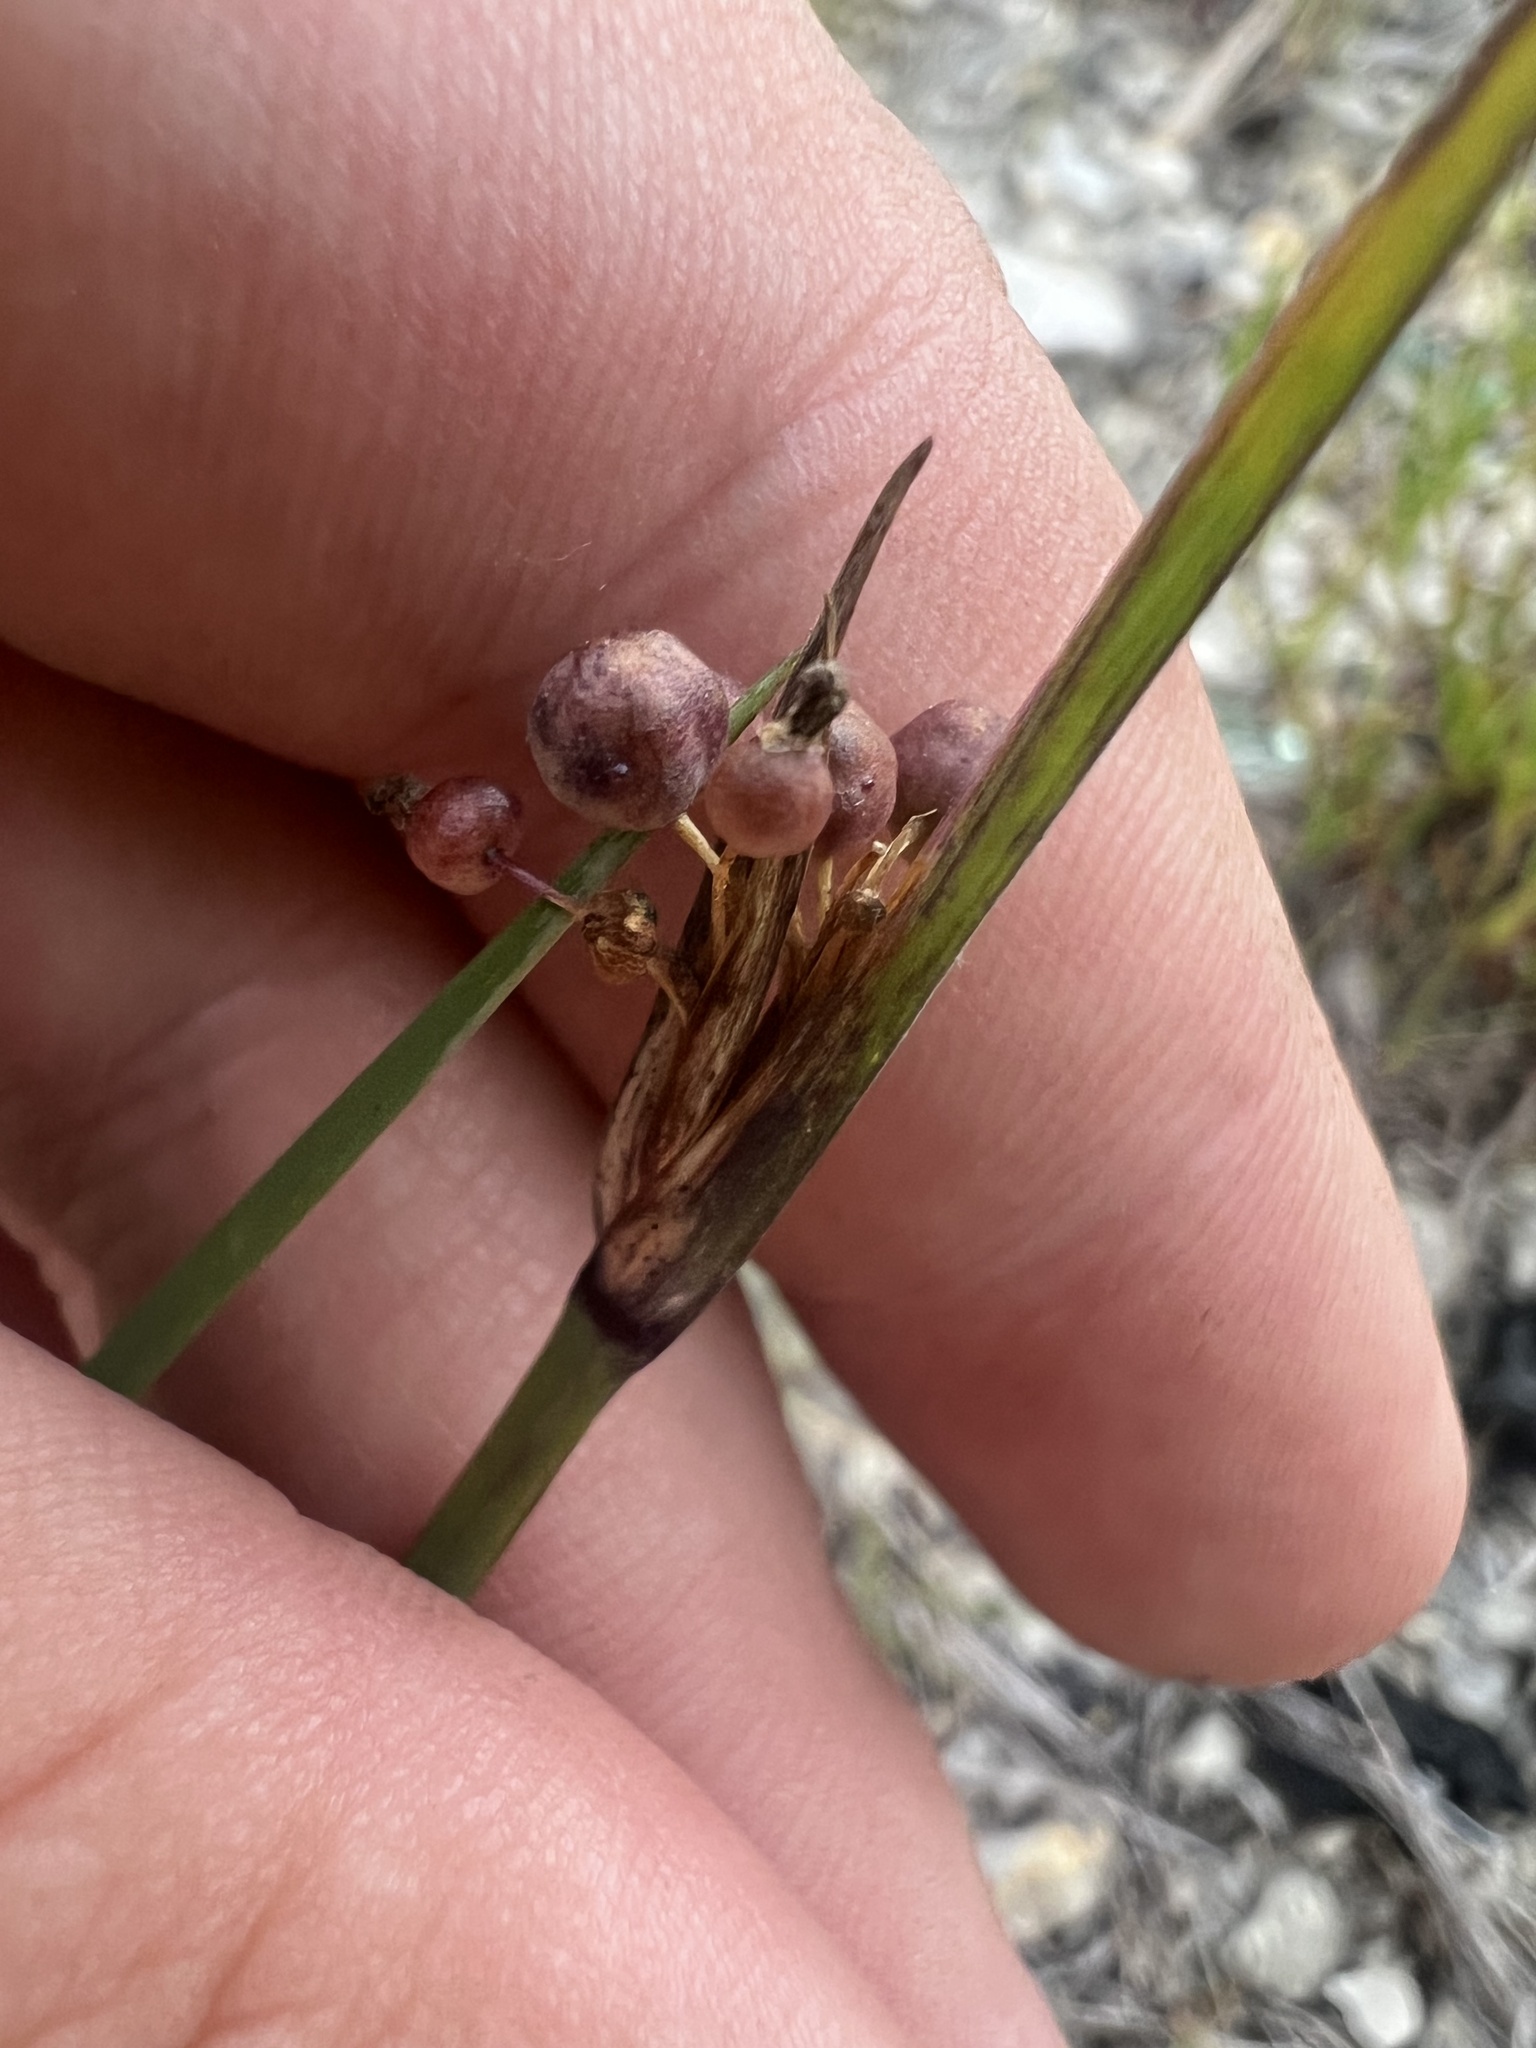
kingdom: Plantae
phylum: Tracheophyta
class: Liliopsida
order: Asparagales
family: Iridaceae
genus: Sisyrinchium
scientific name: Sisyrinchium albidum
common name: Pale blue-eyed-grass
